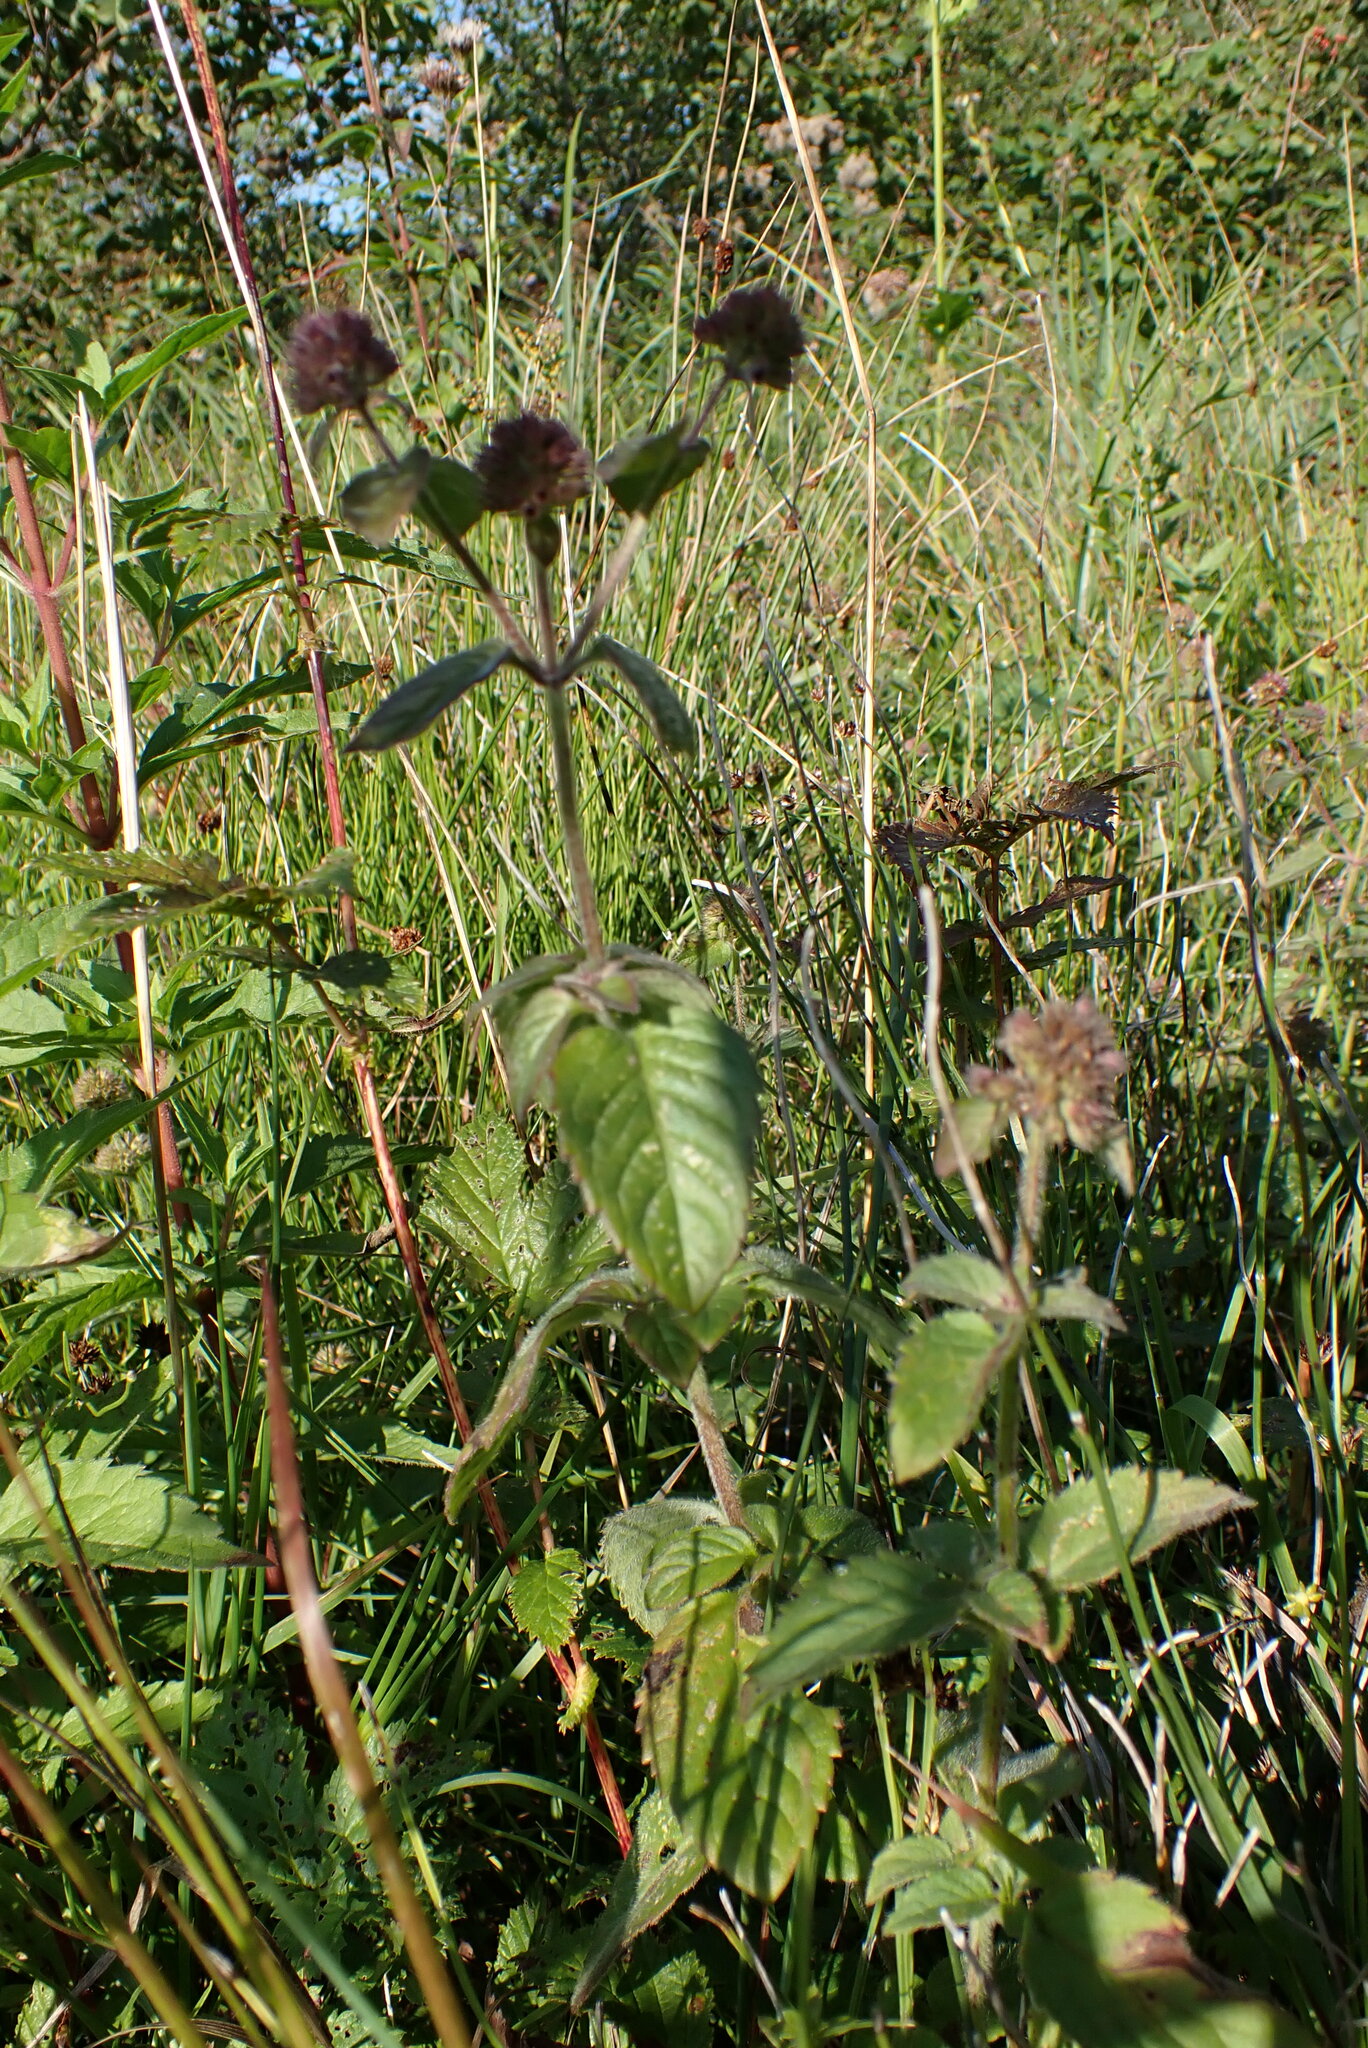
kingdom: Plantae
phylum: Tracheophyta
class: Magnoliopsida
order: Lamiales
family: Lamiaceae
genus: Mentha
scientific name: Mentha aquatica
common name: Water mint
